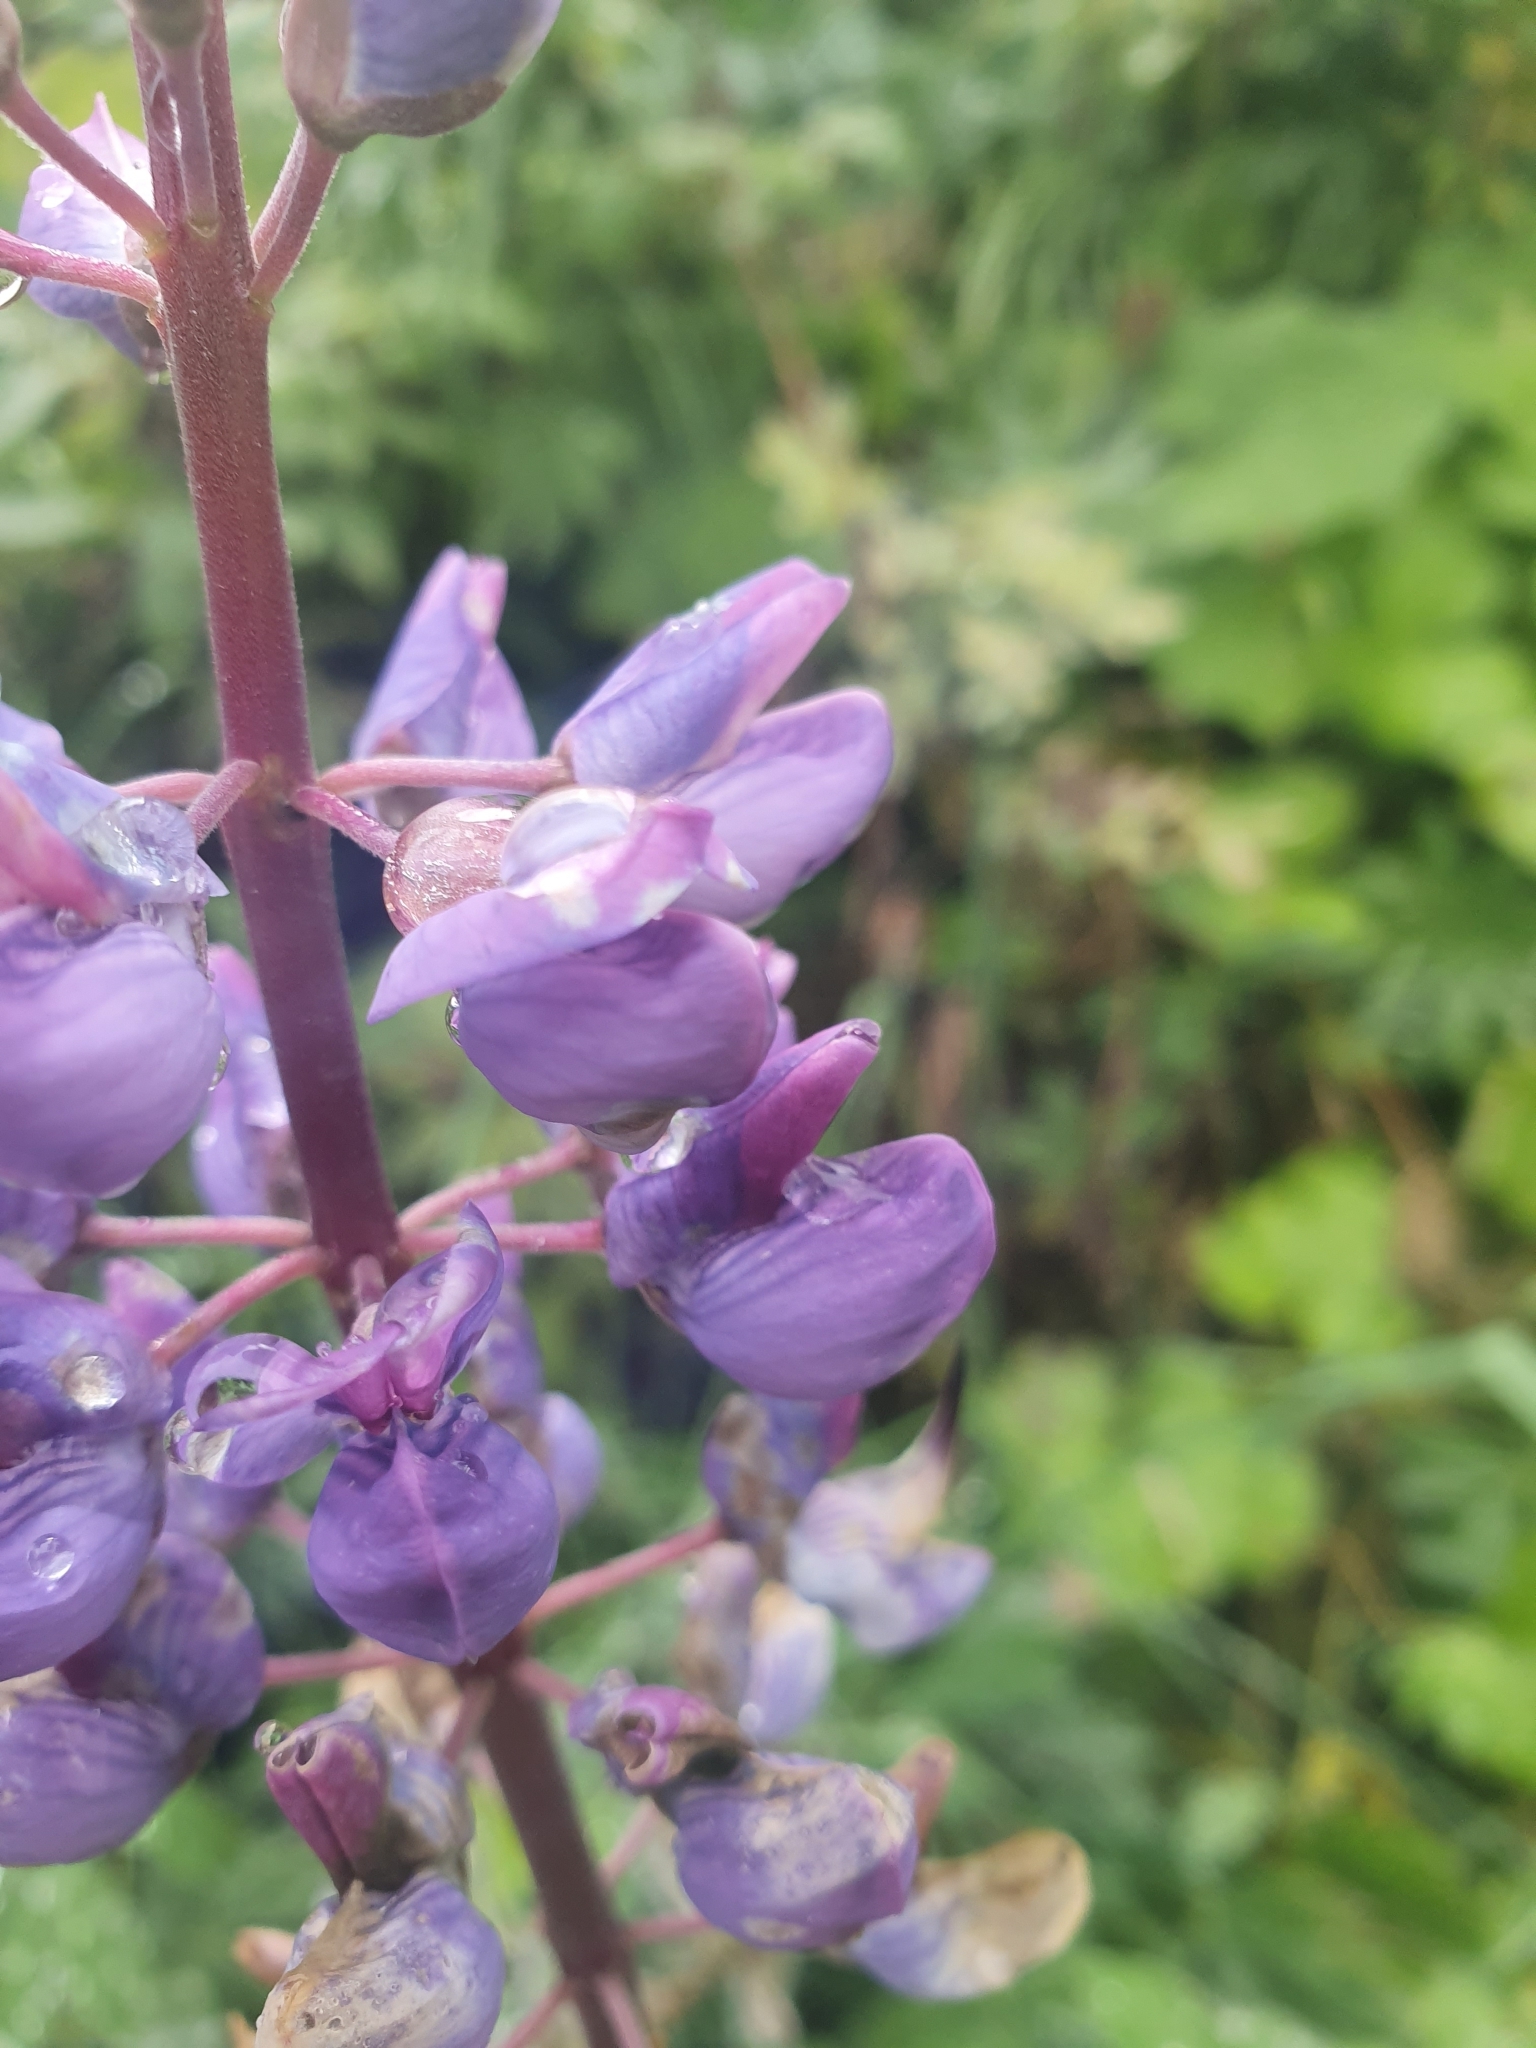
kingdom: Plantae
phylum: Tracheophyta
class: Magnoliopsida
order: Fabales
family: Fabaceae
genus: Lupinus
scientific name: Lupinus polyphyllus
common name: Garden lupin
